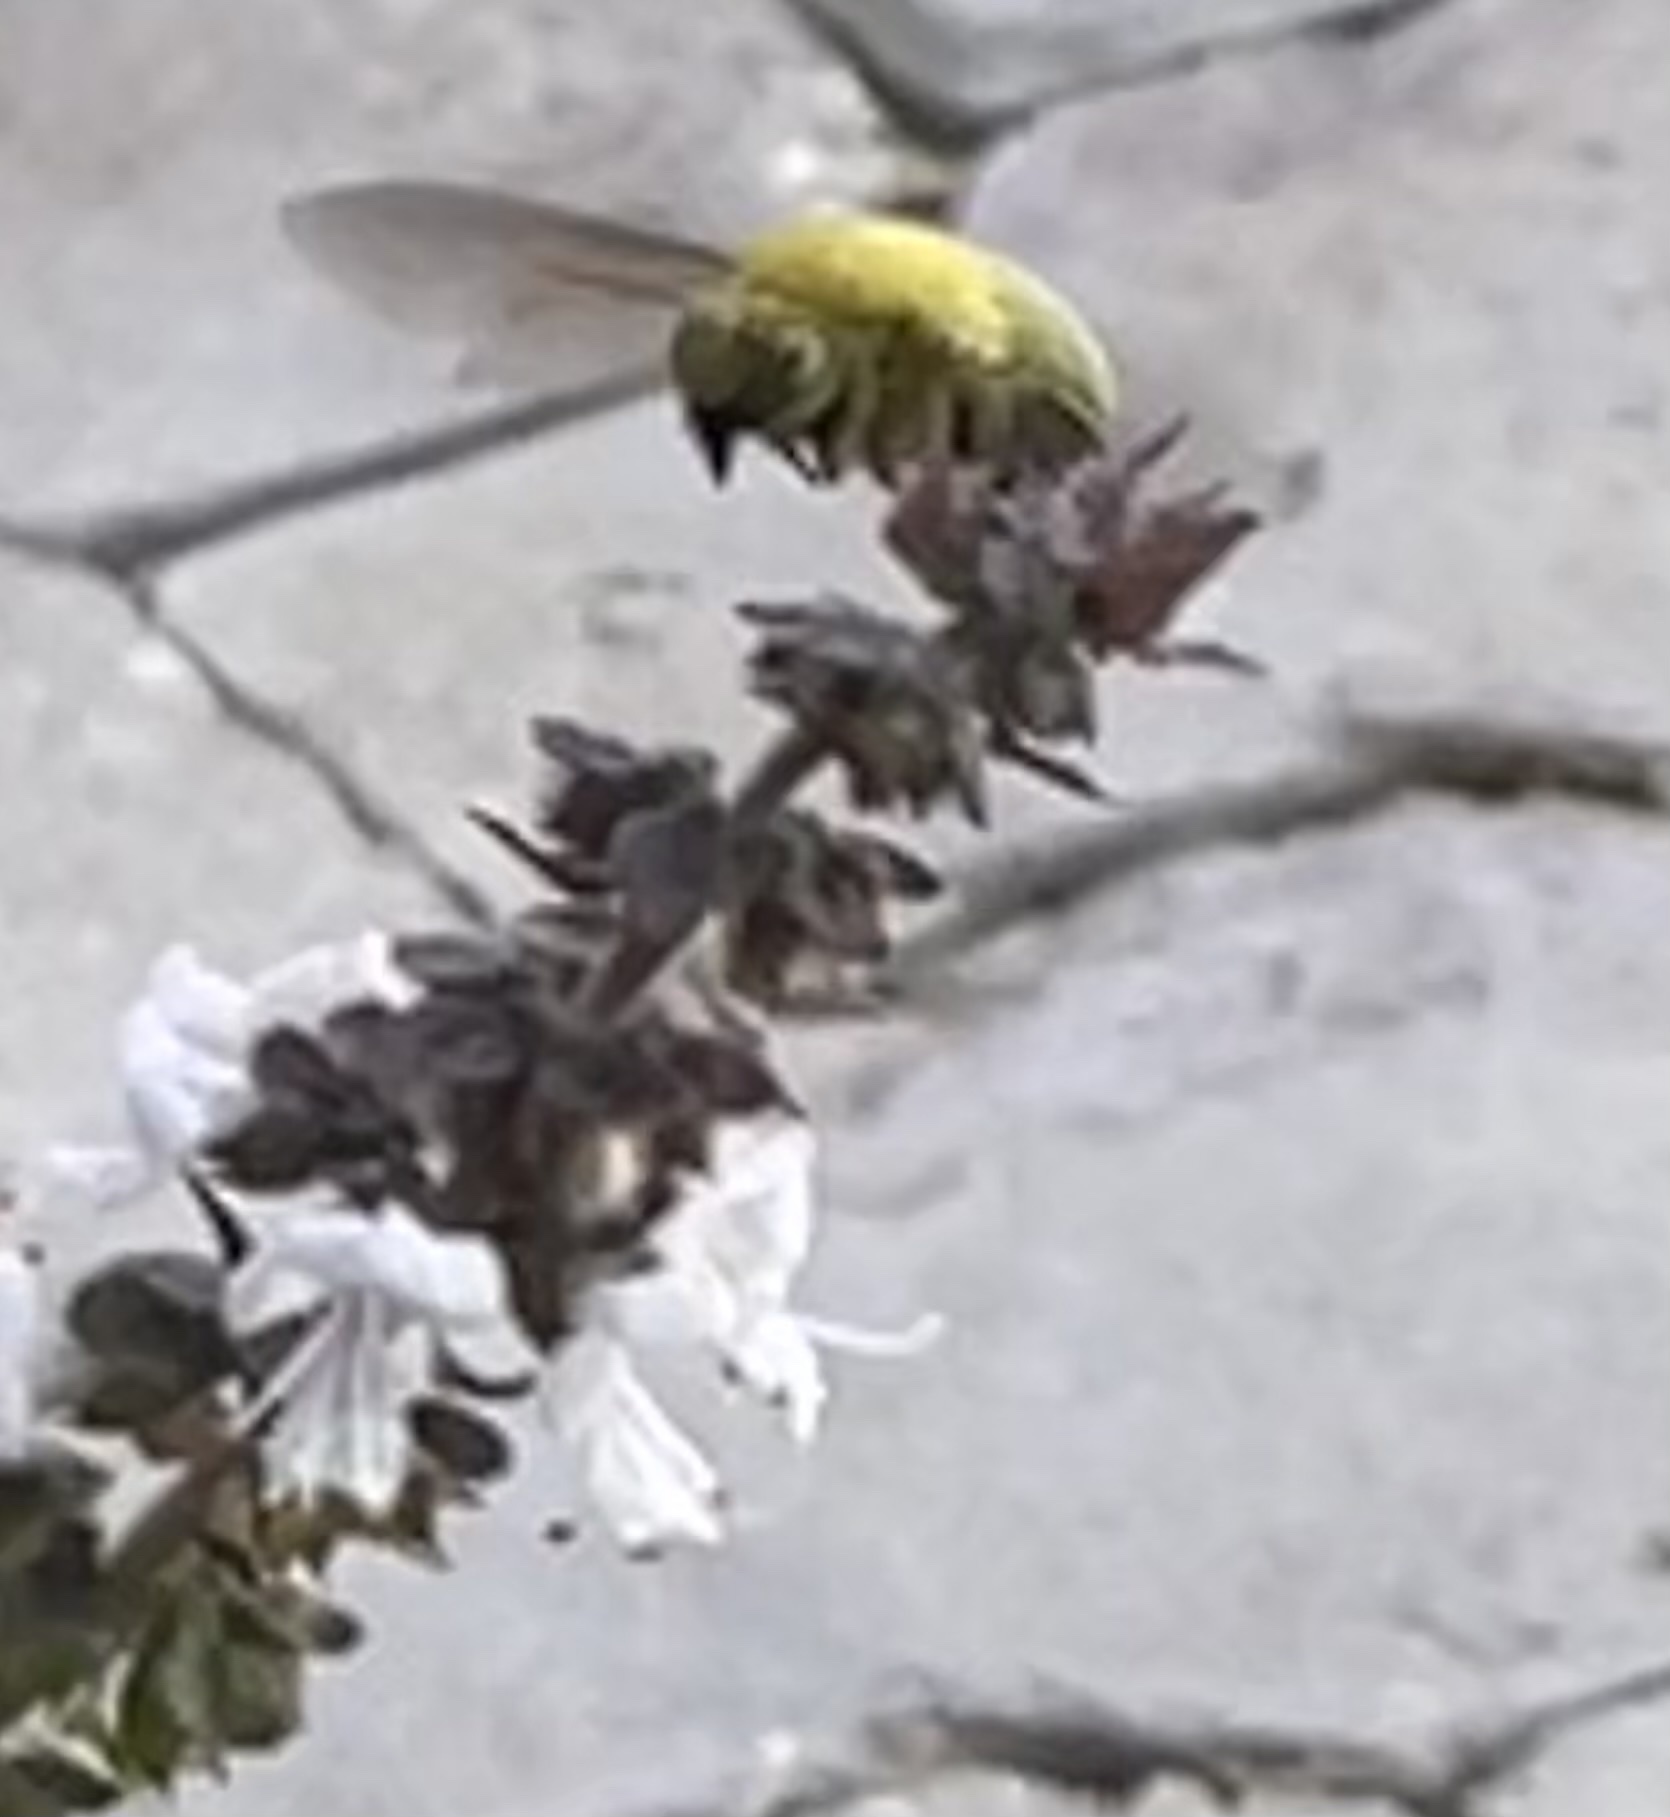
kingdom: Animalia
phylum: Arthropoda
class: Insecta
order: Hymenoptera
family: Apidae
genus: Xylocopa
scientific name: Xylocopa pubescens
